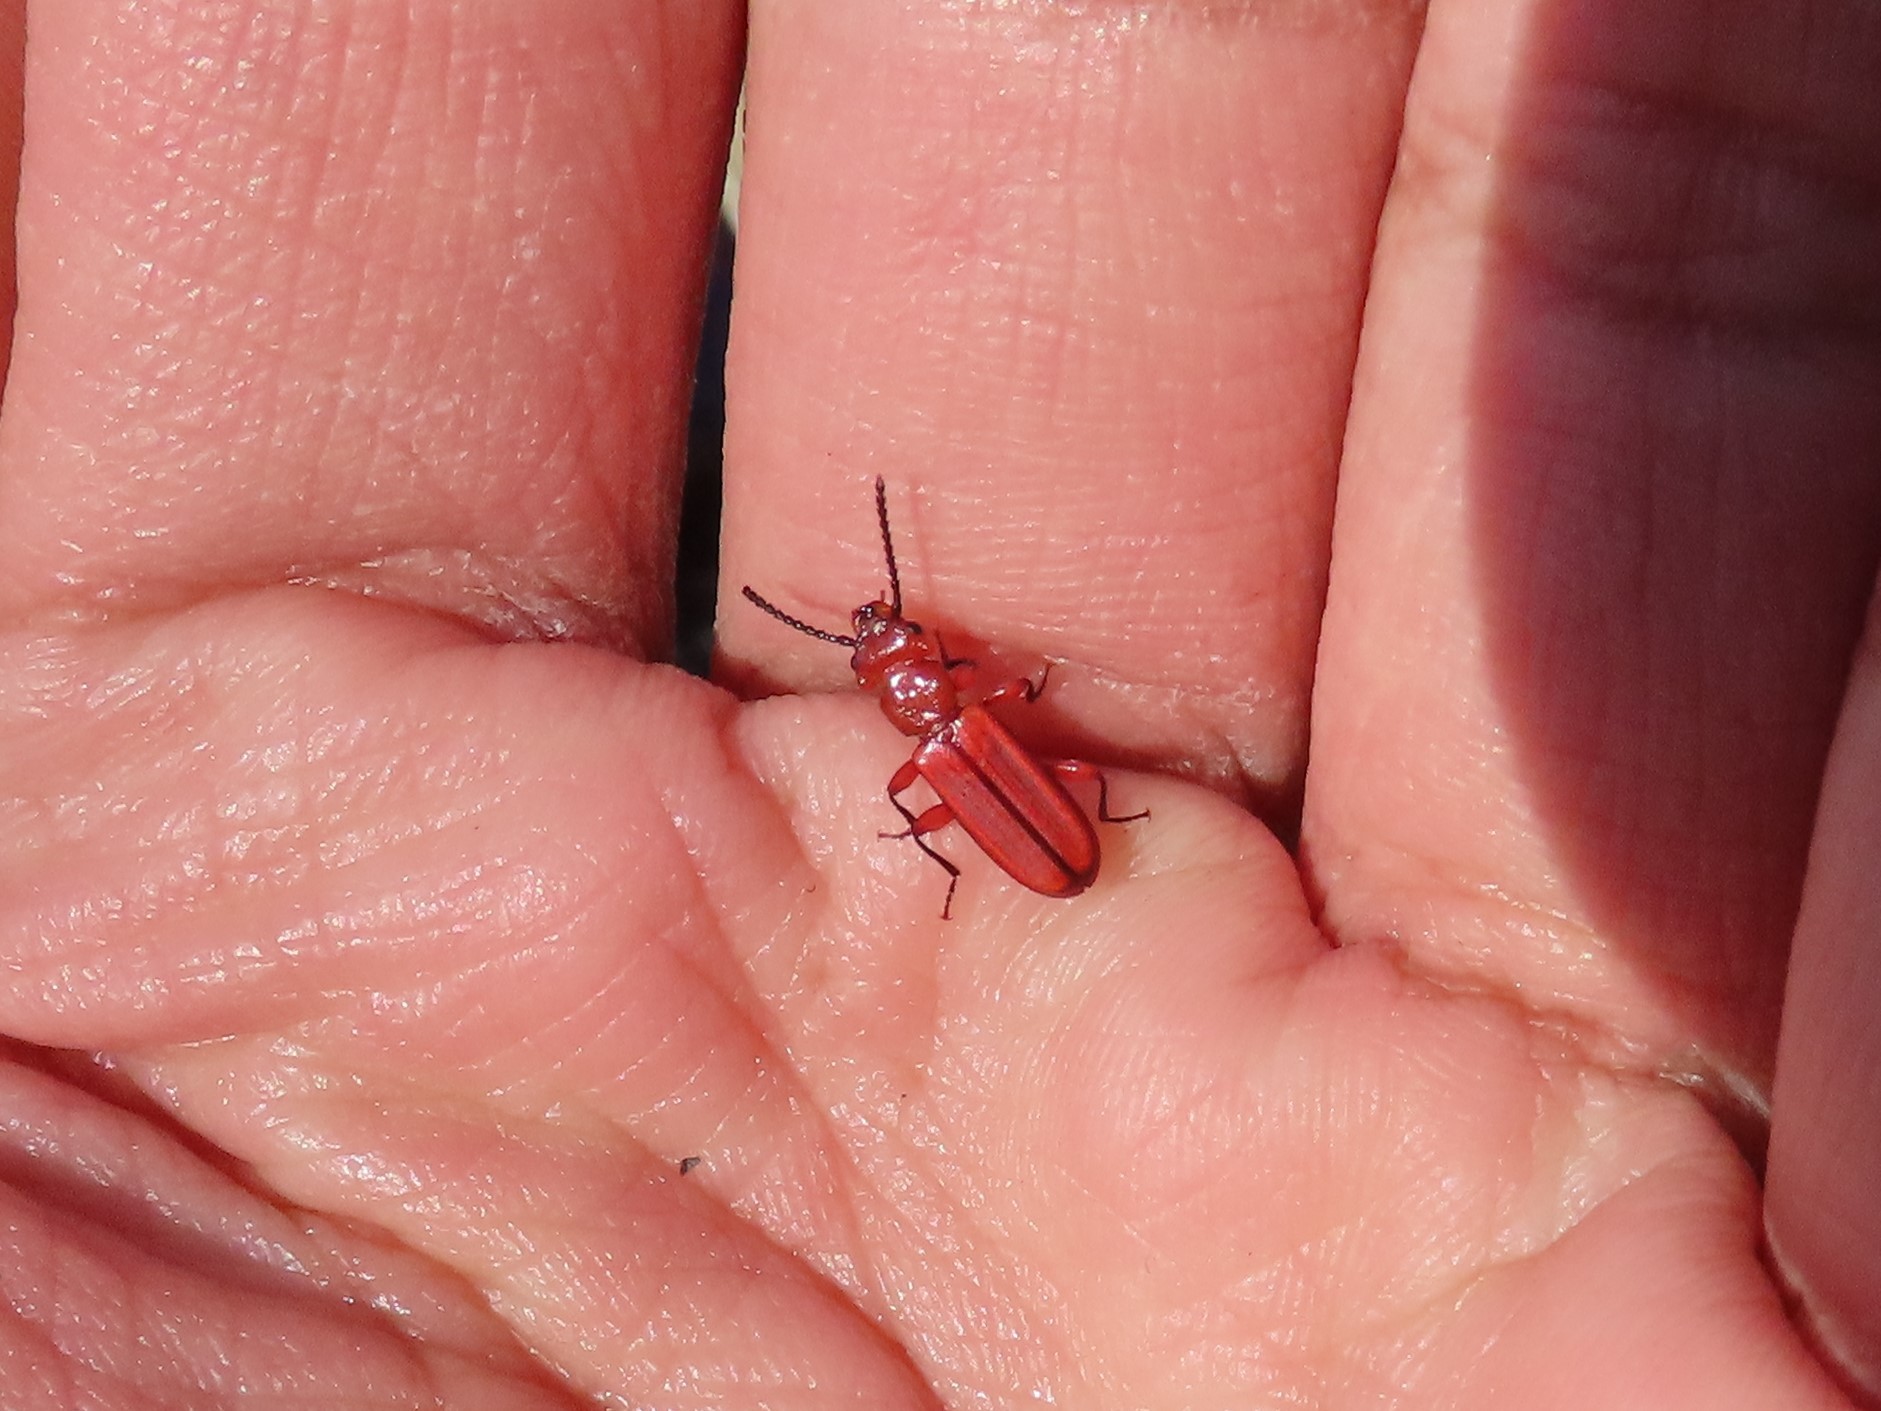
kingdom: Animalia
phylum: Arthropoda
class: Insecta
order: Coleoptera
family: Cucujidae
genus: Cucujus
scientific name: Cucujus clavipes
